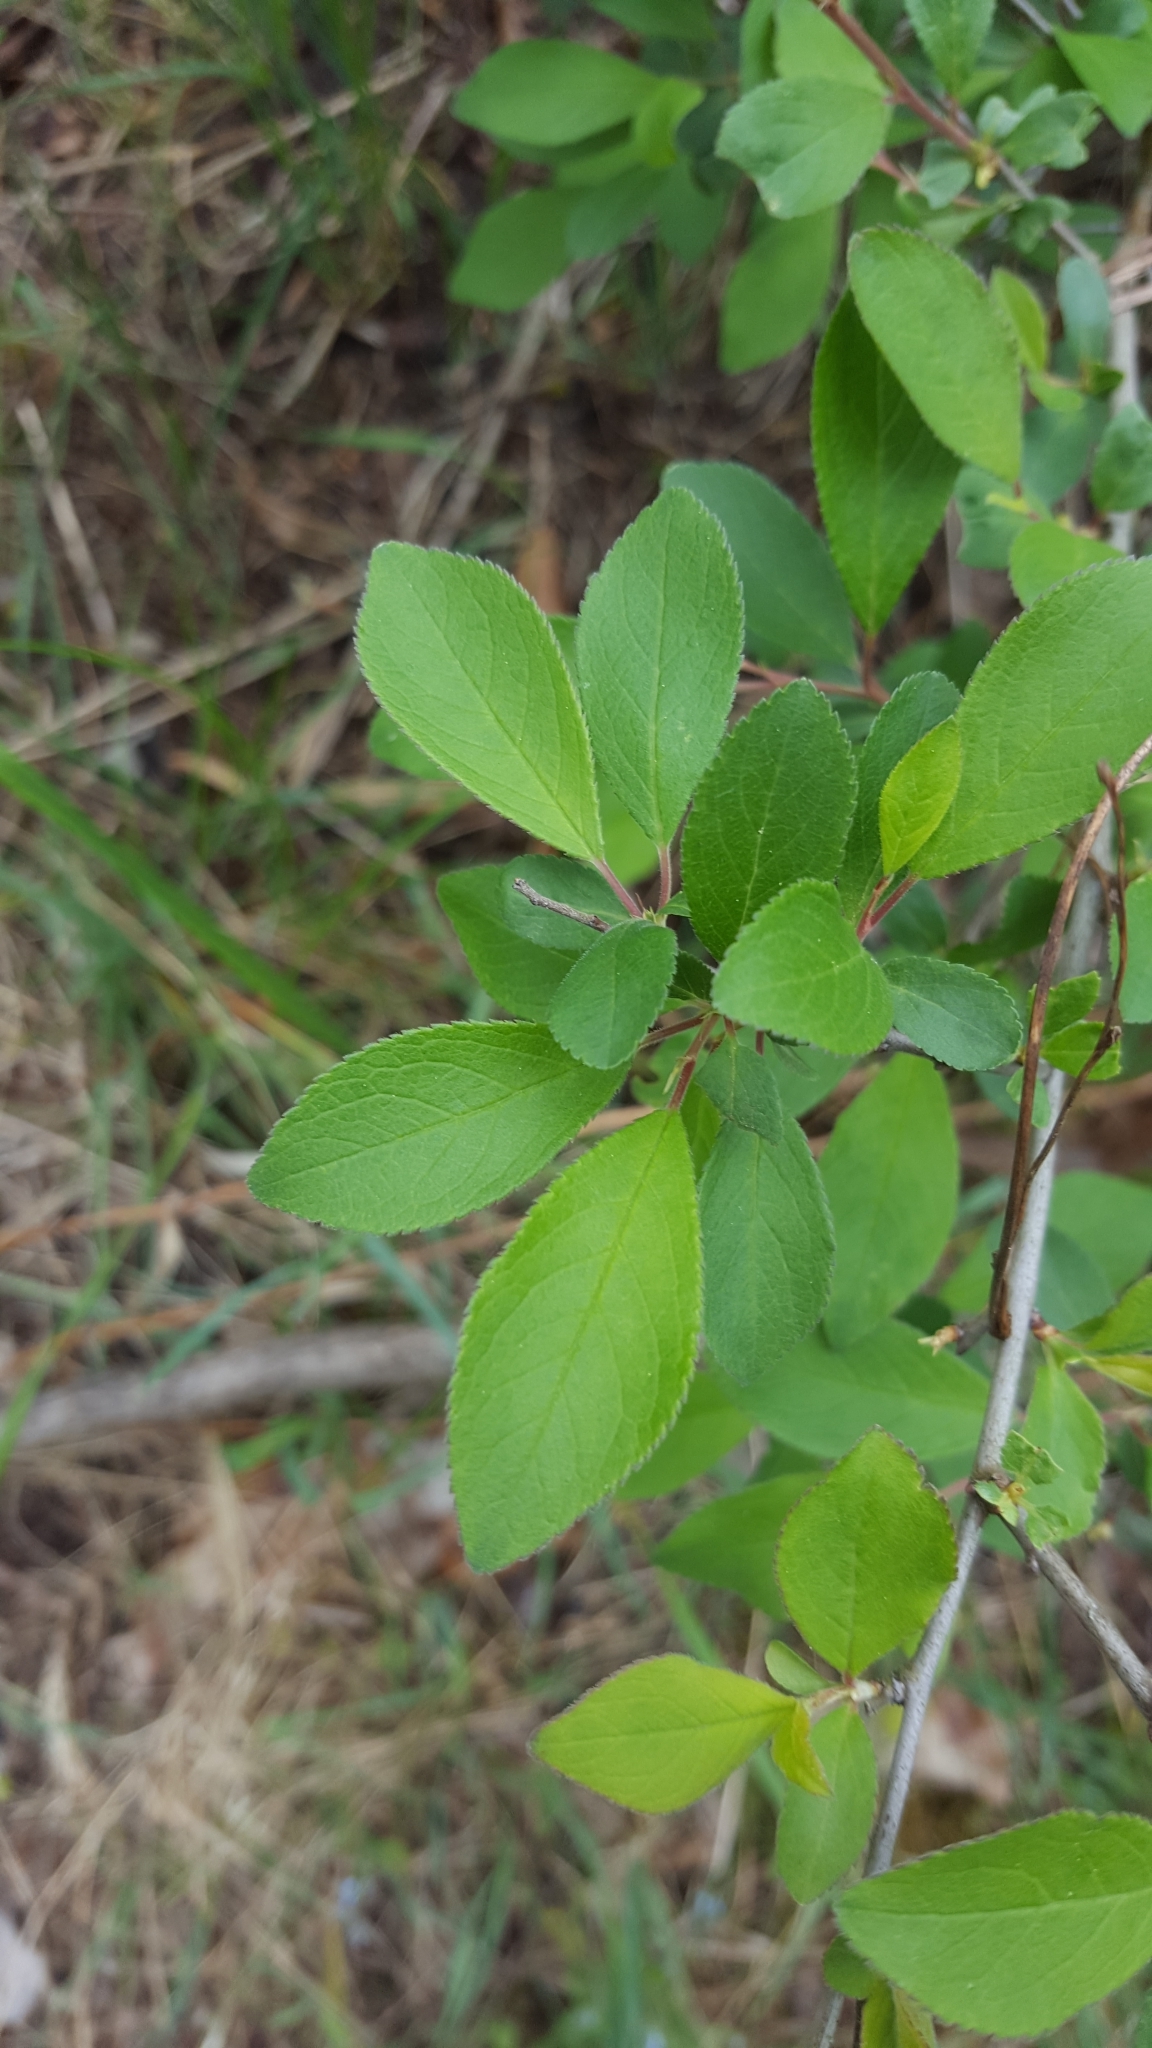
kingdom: Plantae
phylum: Tracheophyta
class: Magnoliopsida
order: Rosales
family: Rosaceae
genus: Prunus
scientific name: Prunus spinosa
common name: Blackthorn
